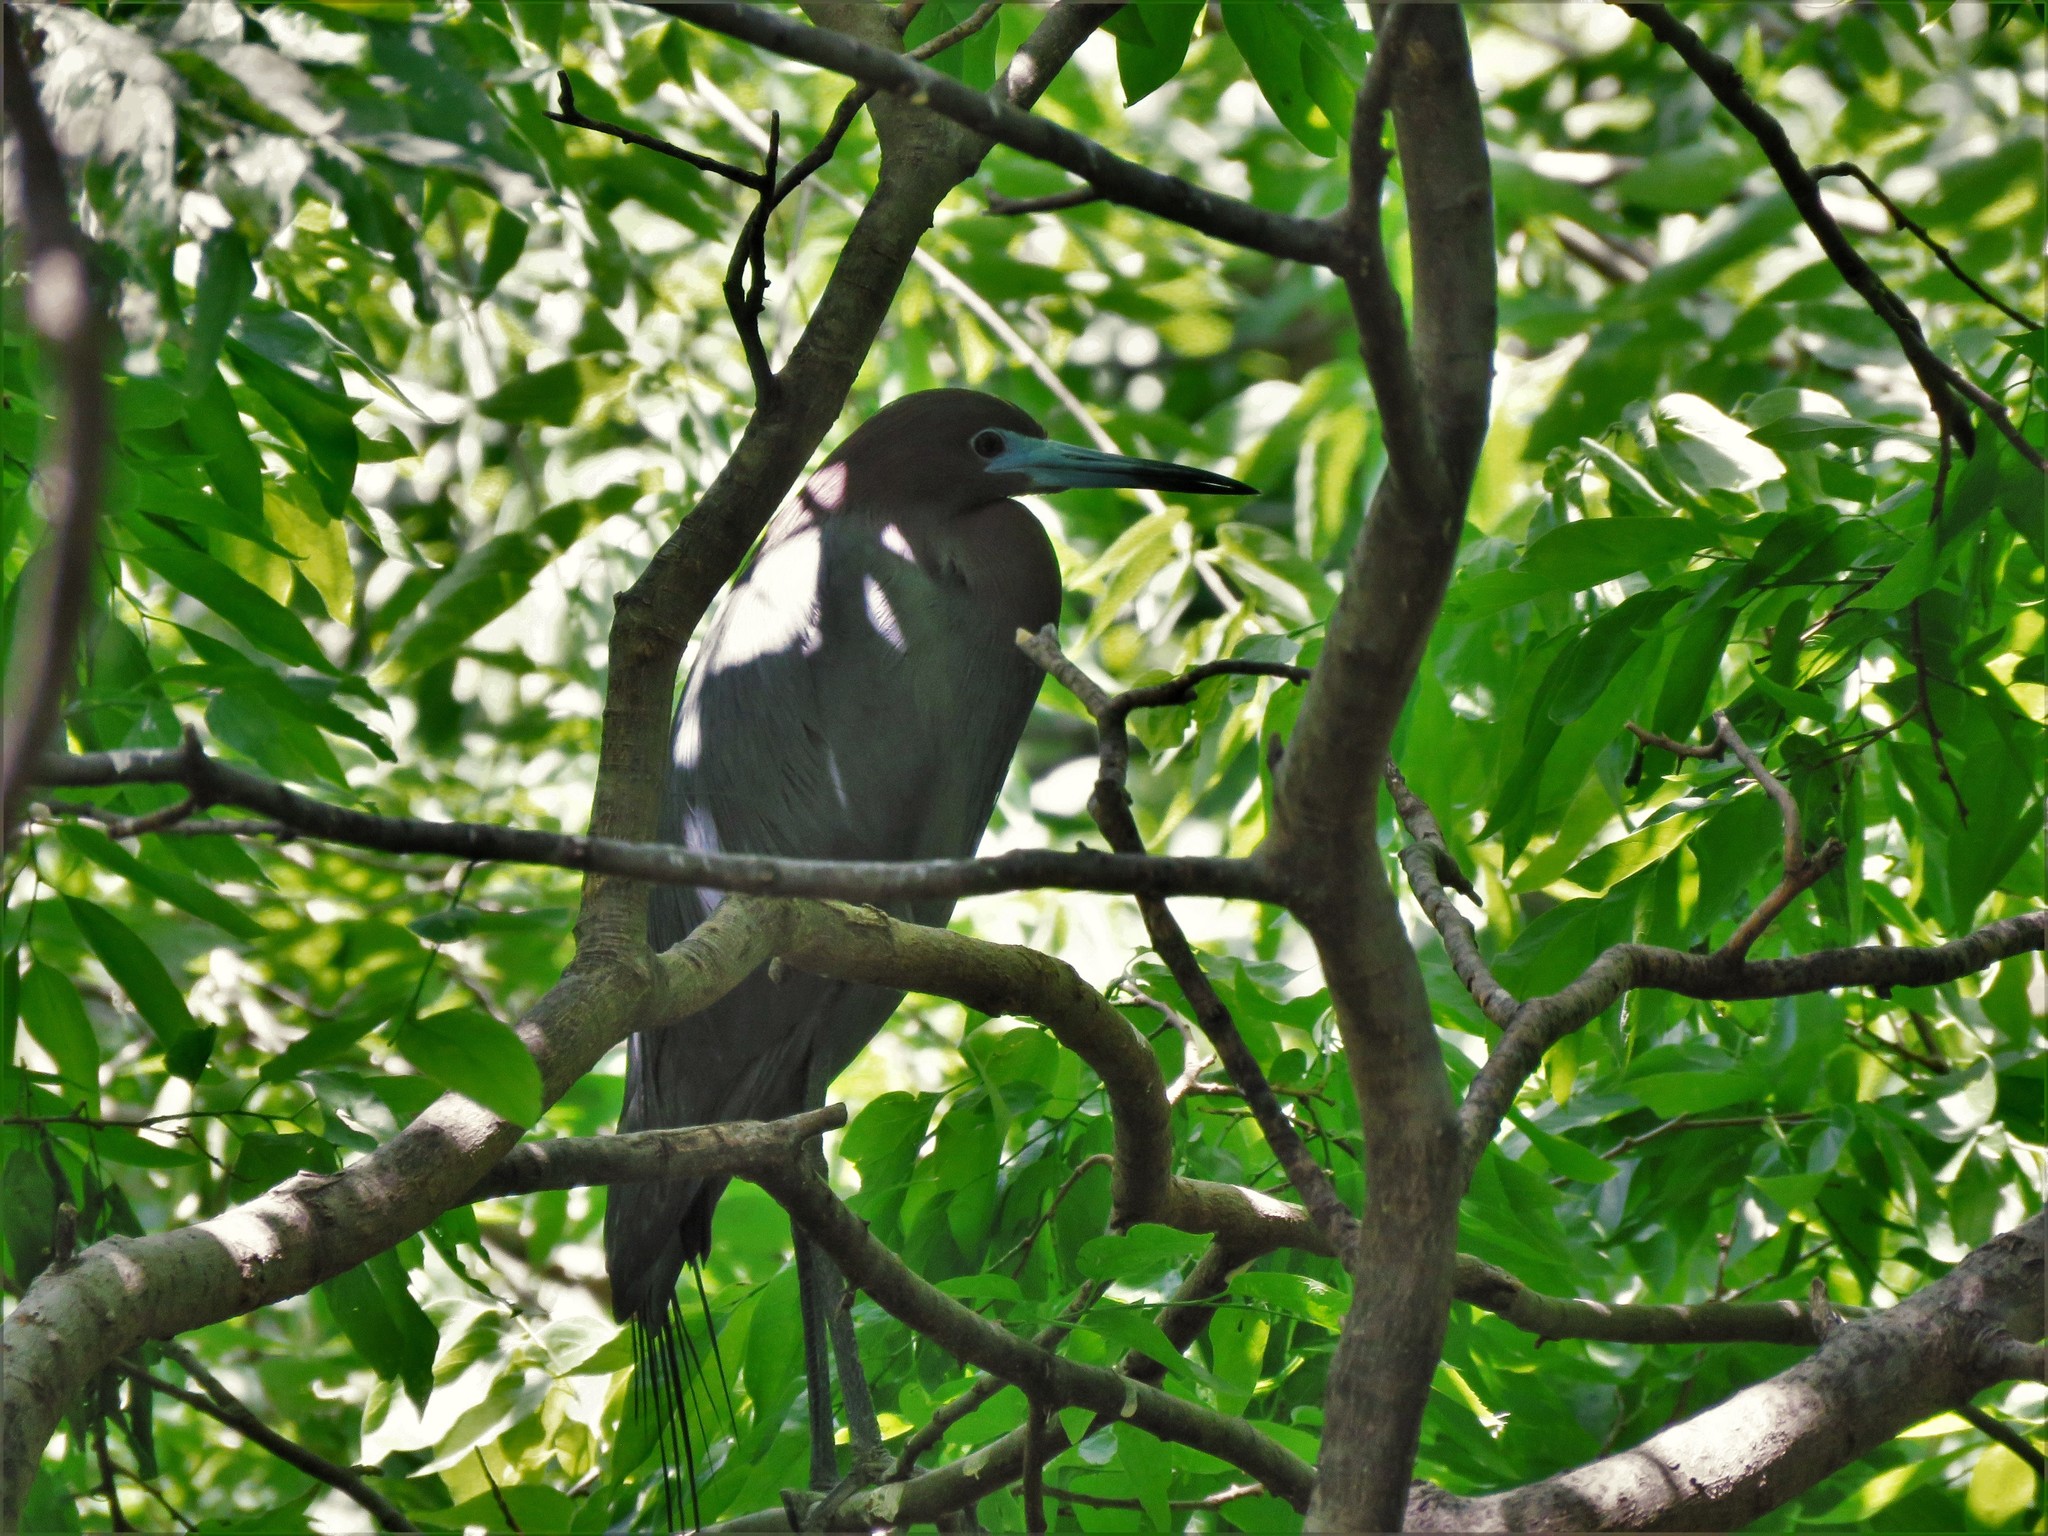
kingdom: Animalia
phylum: Chordata
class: Aves
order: Pelecaniformes
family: Ardeidae
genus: Egretta
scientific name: Egretta caerulea
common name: Little blue heron
